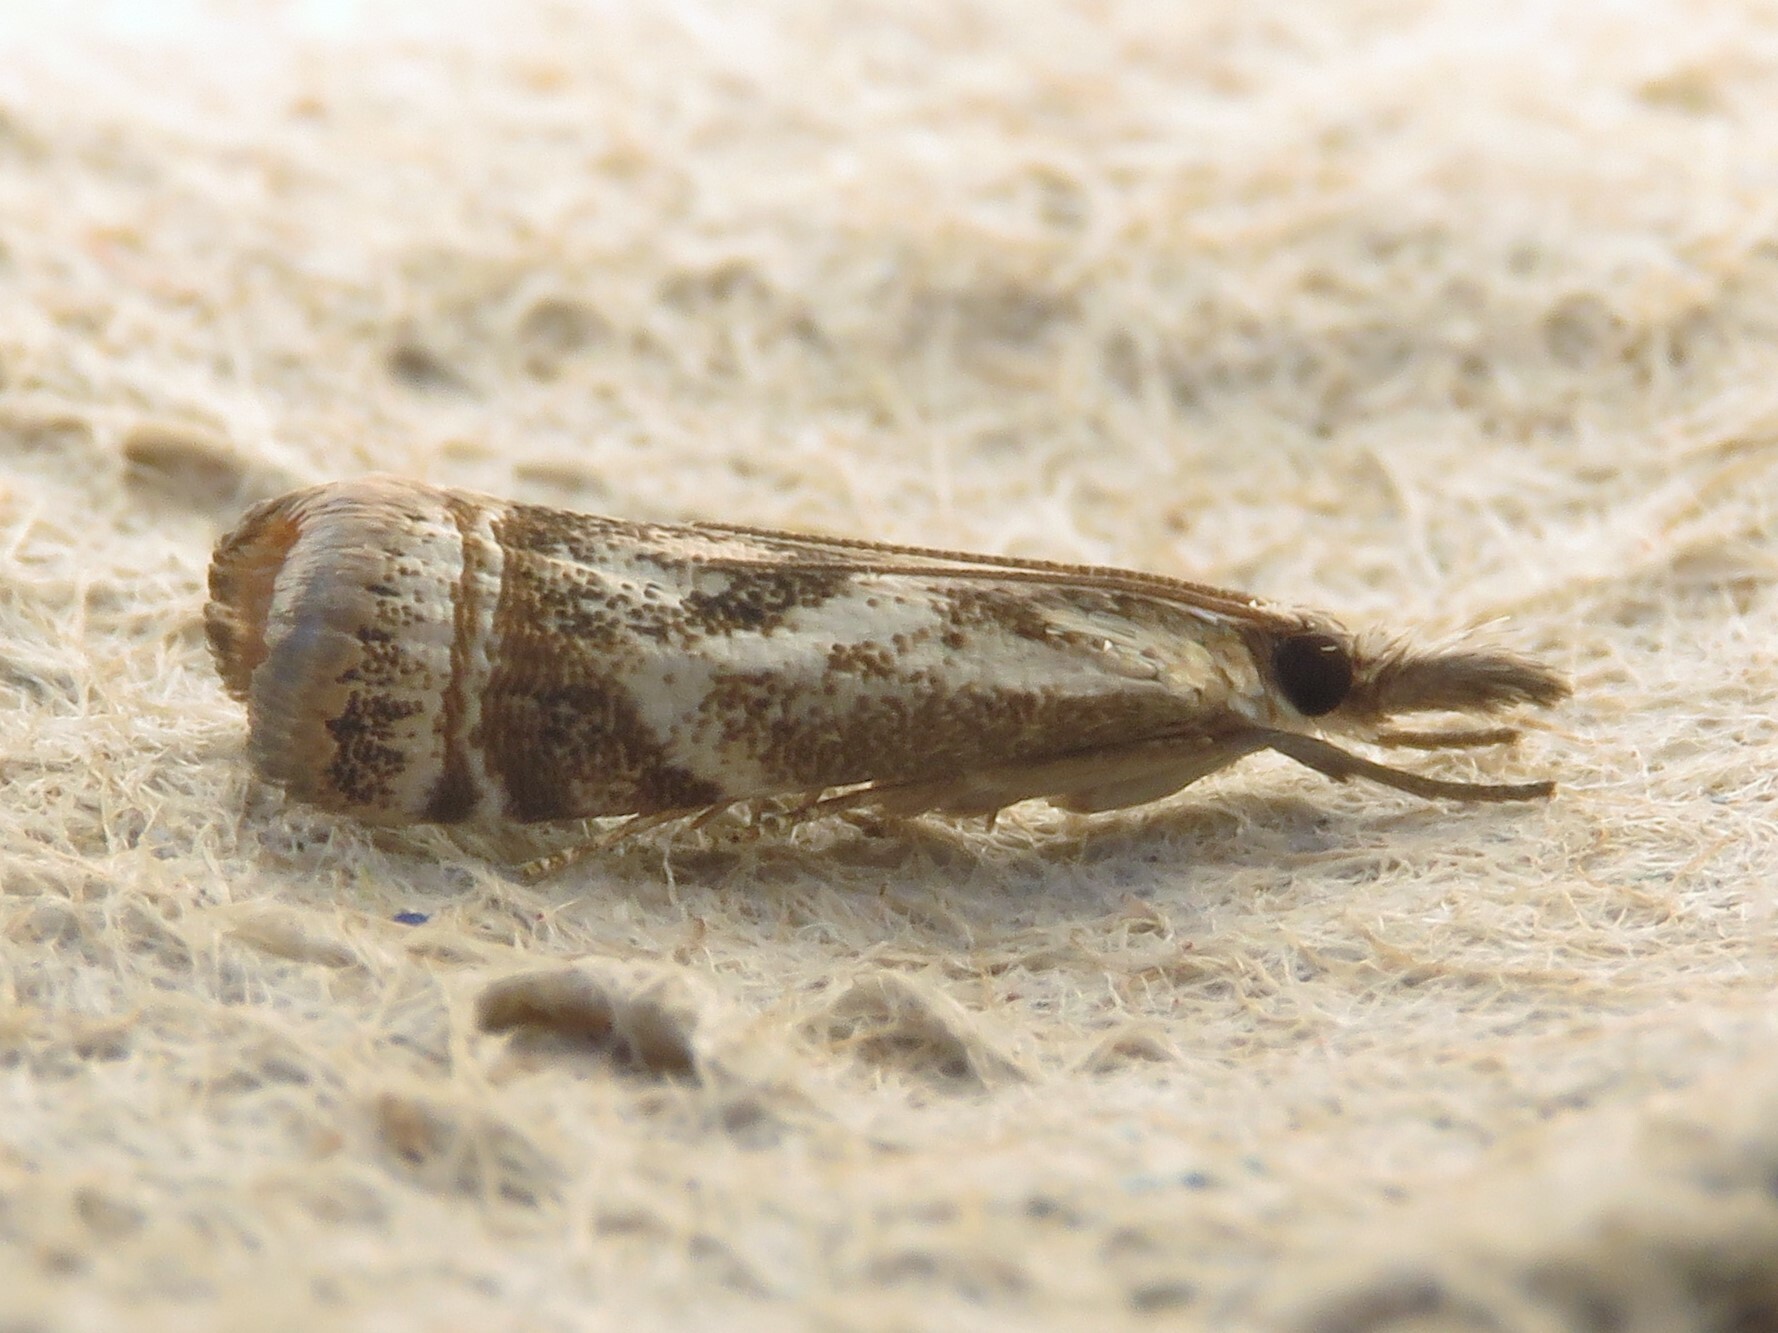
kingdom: Animalia
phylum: Arthropoda
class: Insecta
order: Lepidoptera
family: Crambidae
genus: Microcrambus
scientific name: Microcrambus elegans
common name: Elegant grass-veneer
